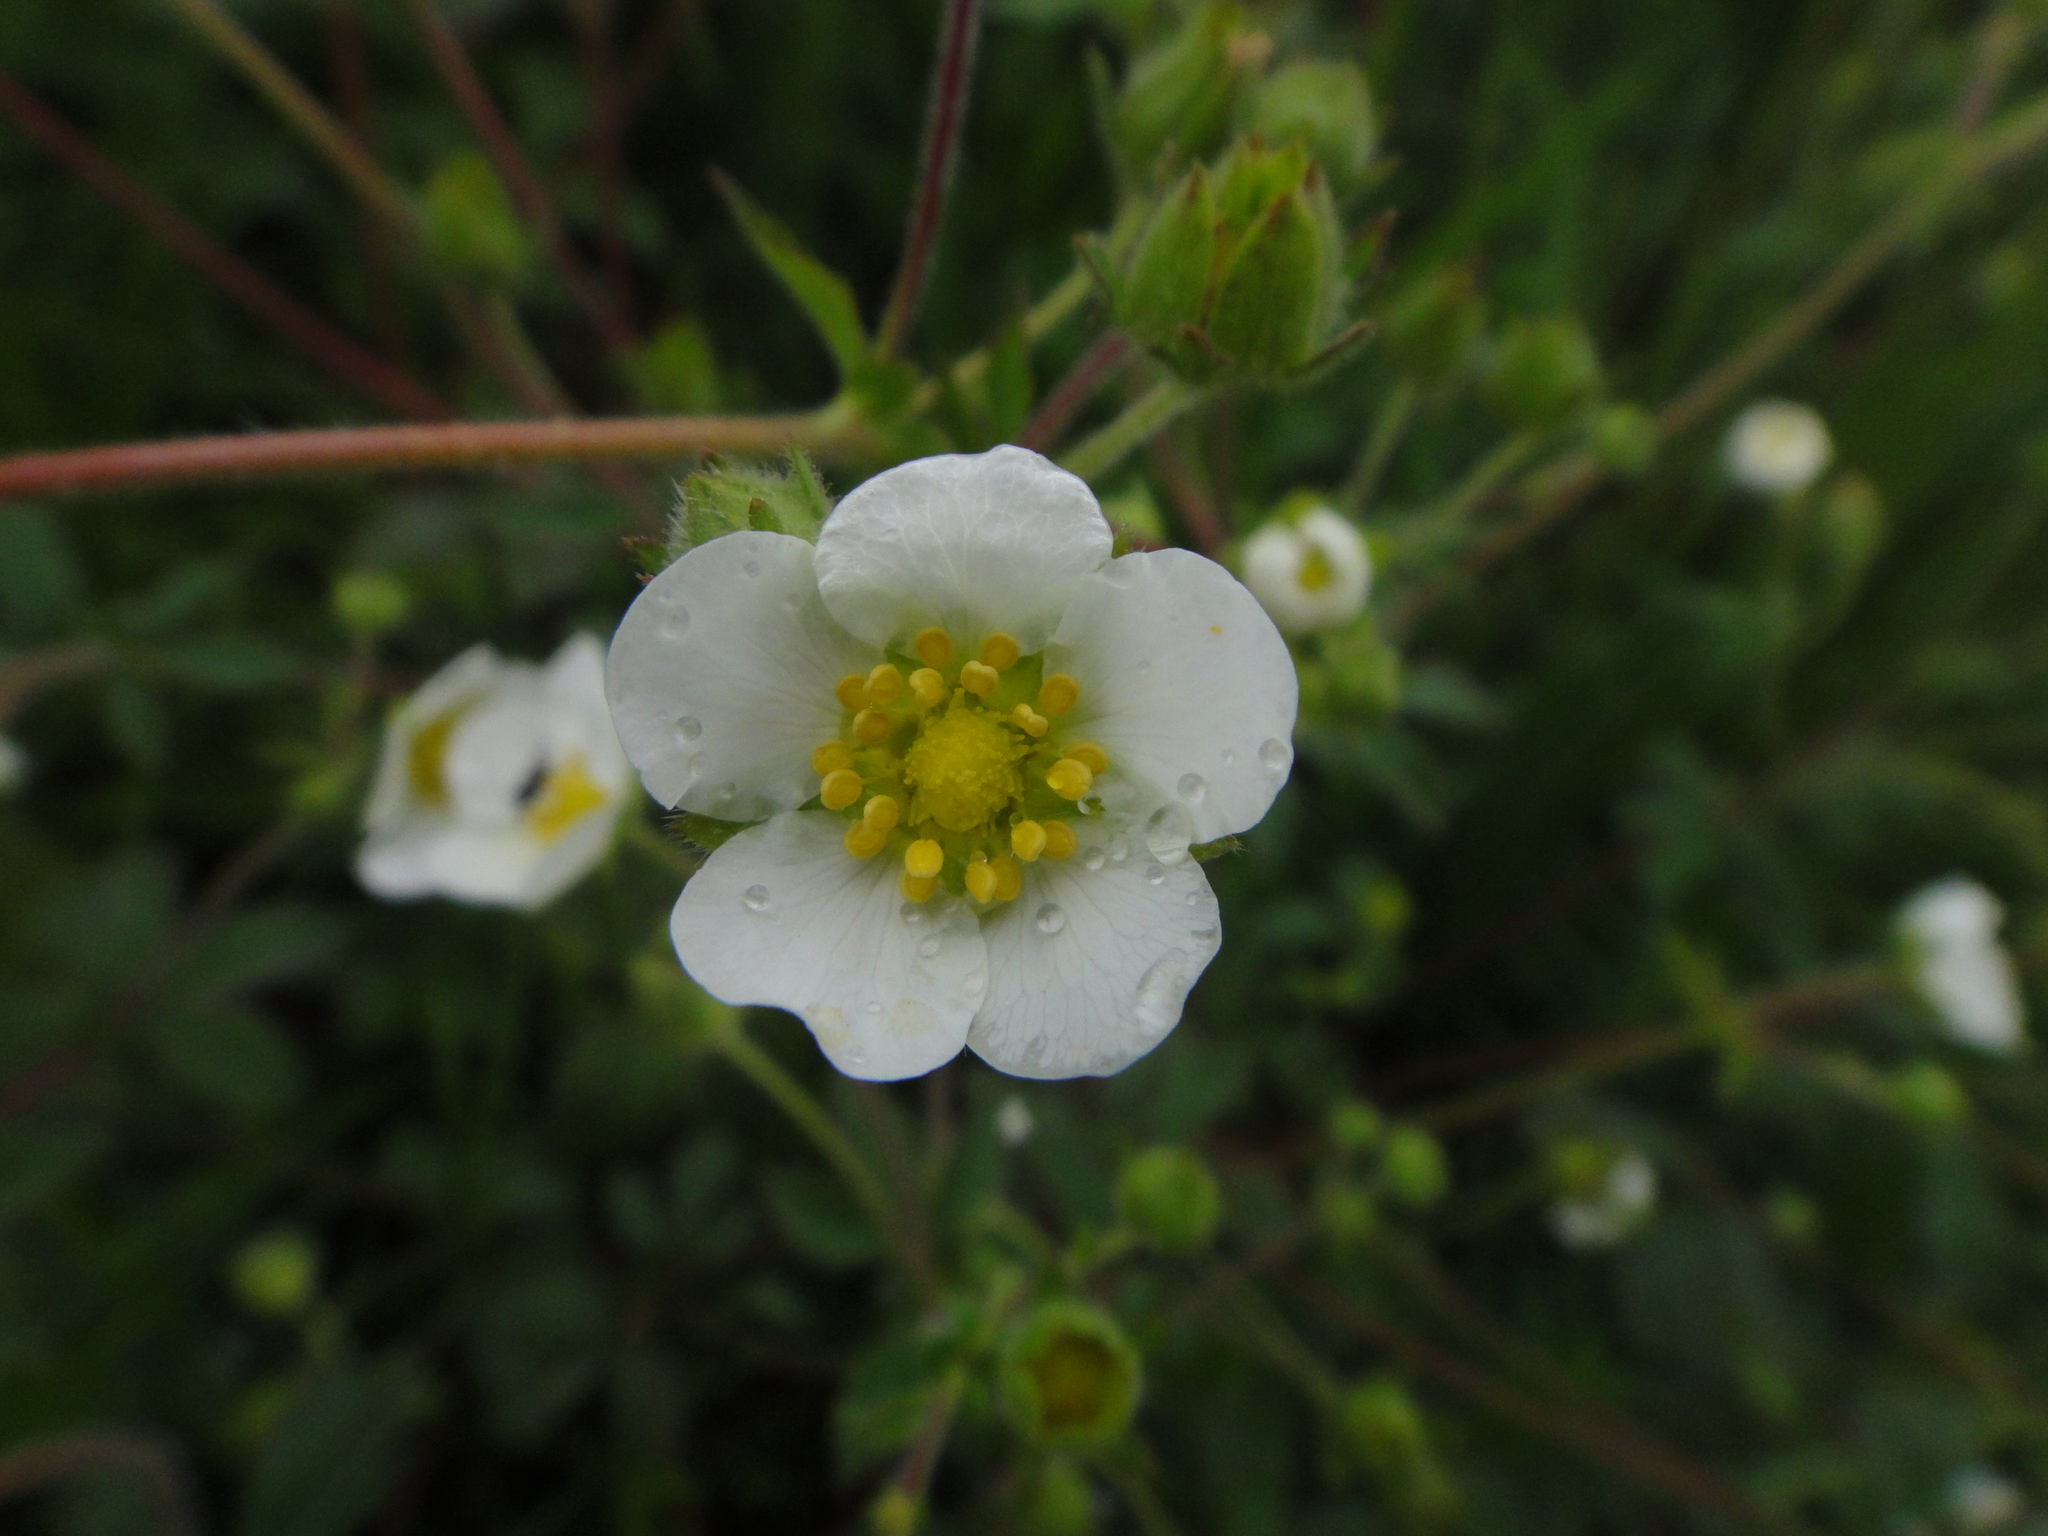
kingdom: Plantae
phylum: Tracheophyta
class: Magnoliopsida
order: Rosales
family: Rosaceae
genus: Drymocallis
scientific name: Drymocallis rupestris
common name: Rock cinquefoil
